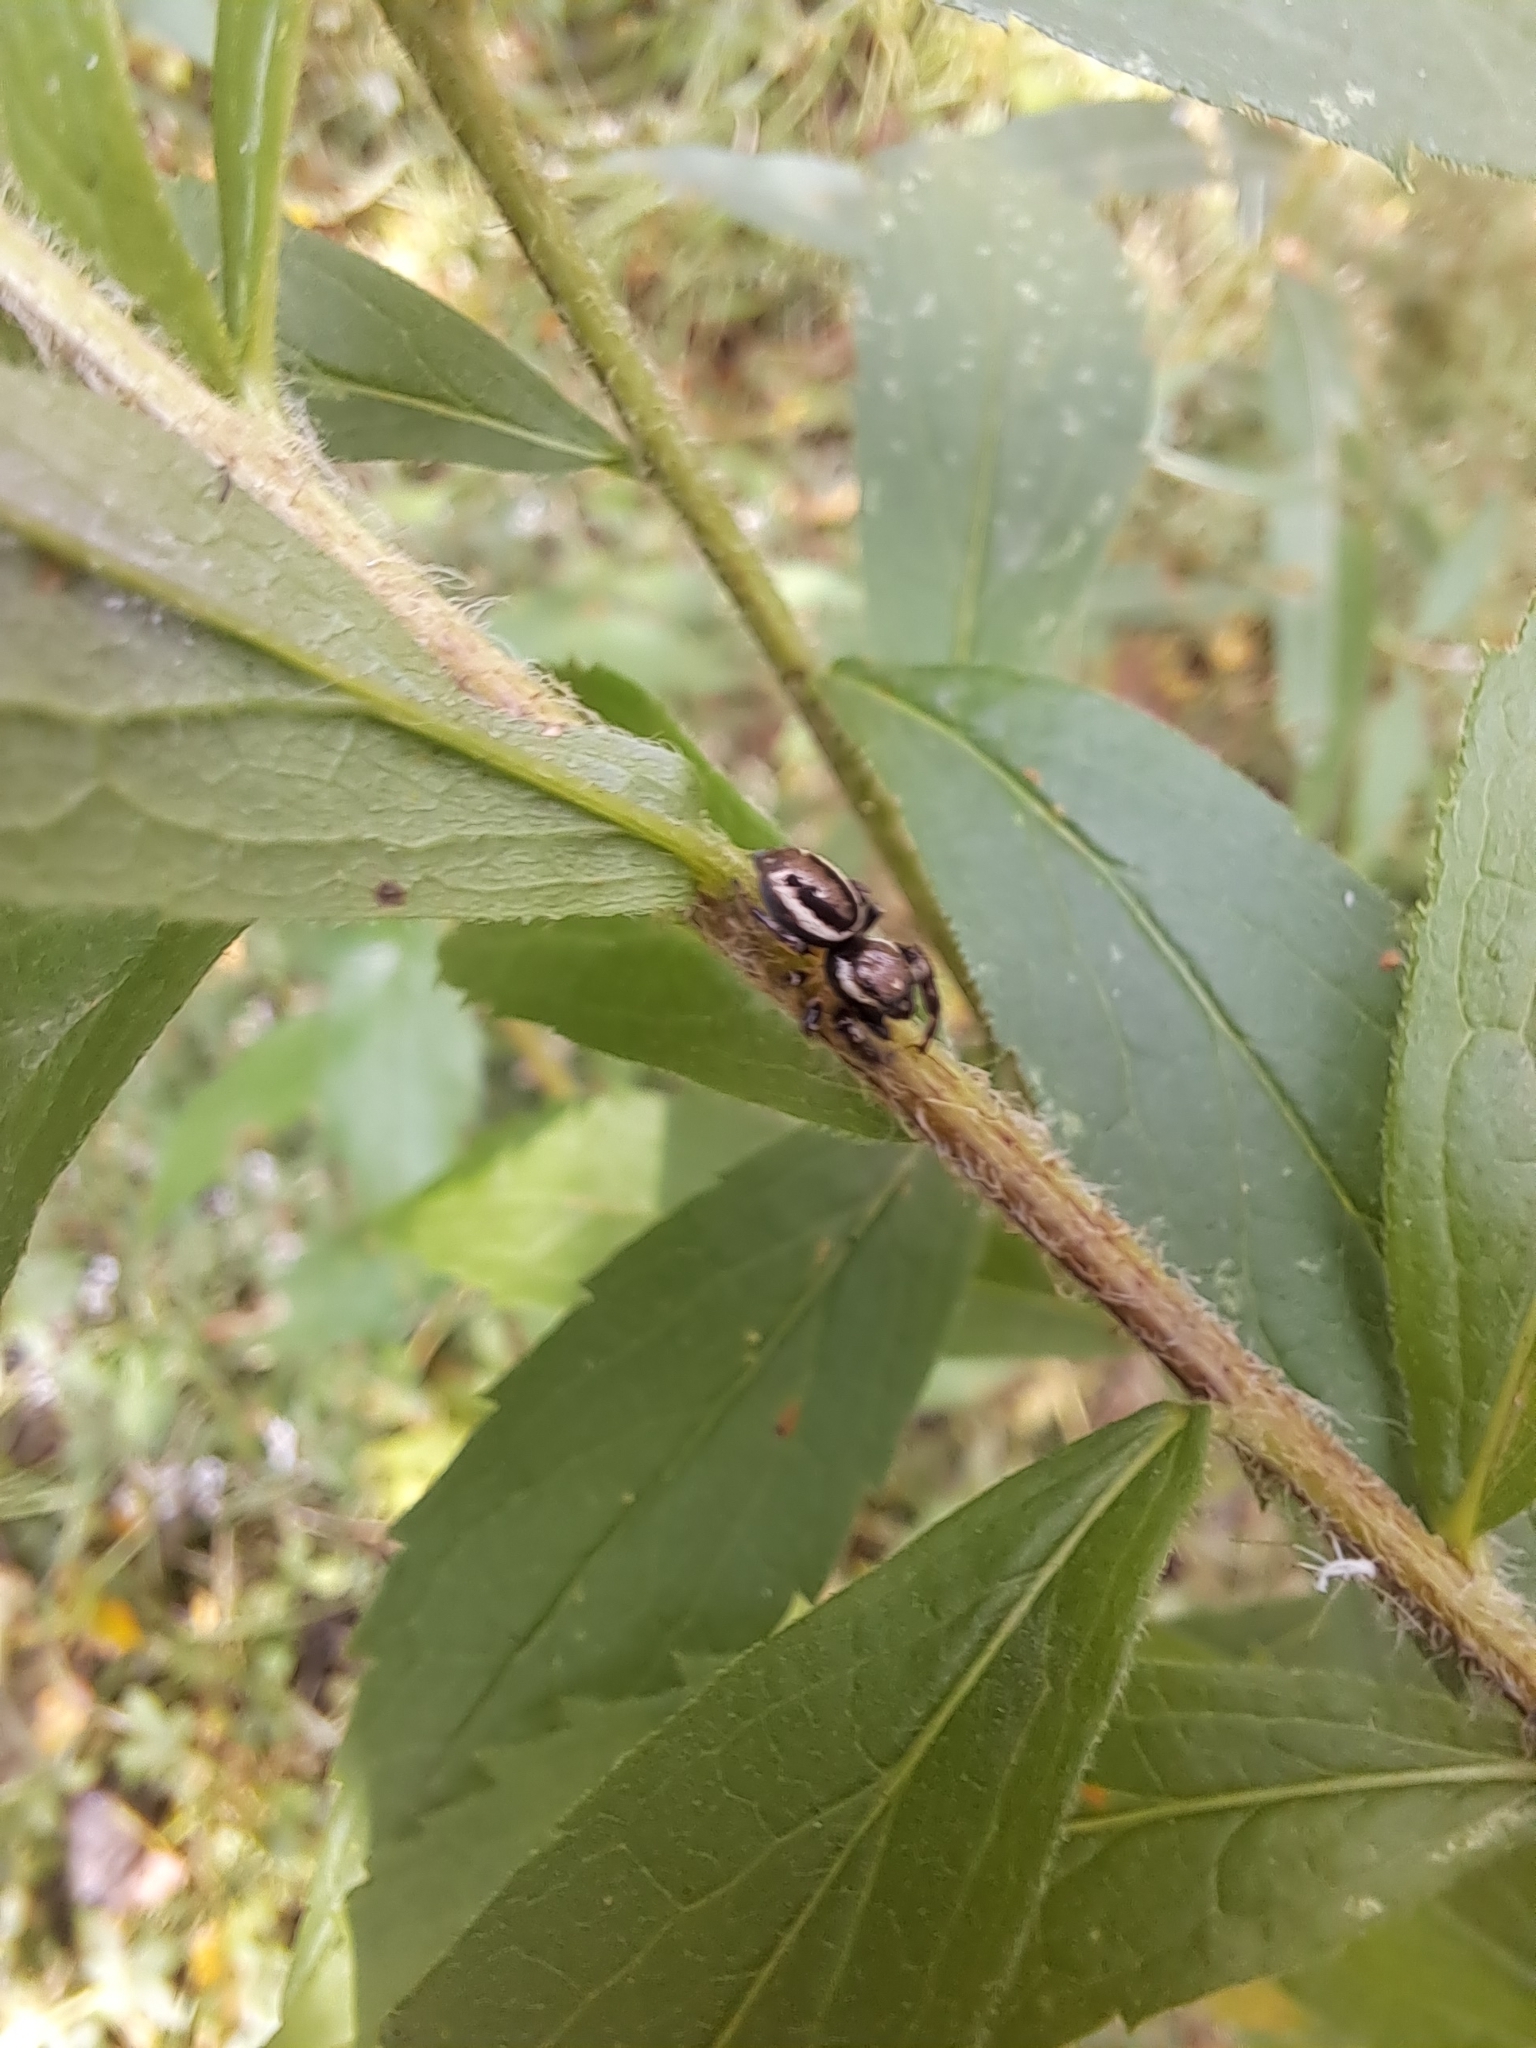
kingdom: Animalia
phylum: Arthropoda
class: Arachnida
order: Araneae
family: Salticidae
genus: Eris
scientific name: Eris militaris
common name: Bronze jumper
